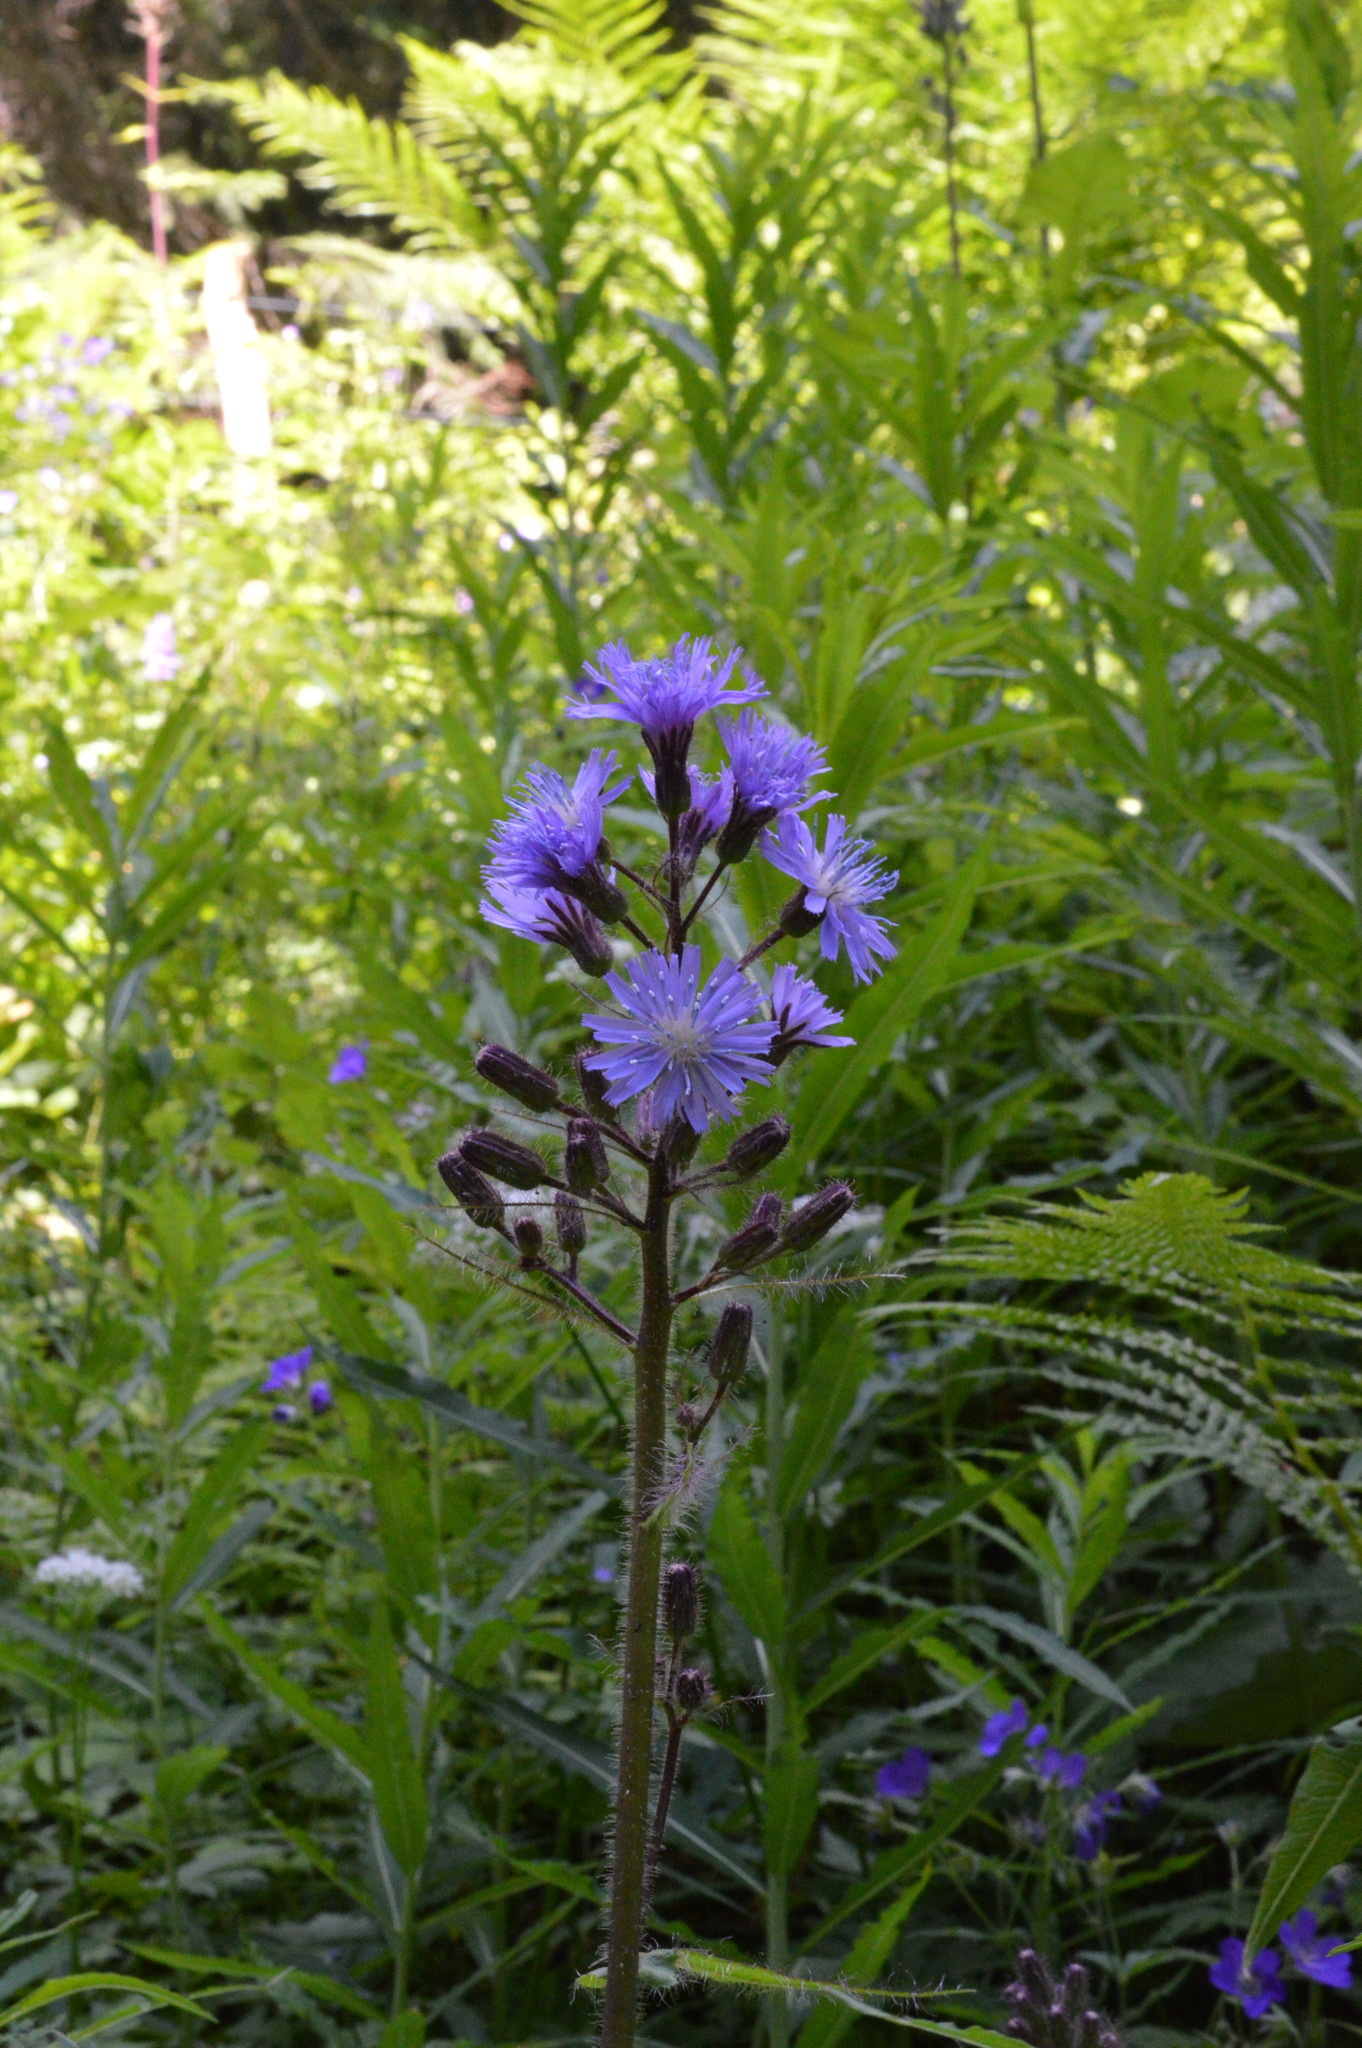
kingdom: Plantae
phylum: Tracheophyta
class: Magnoliopsida
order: Asterales
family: Asteraceae
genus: Cicerbita
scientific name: Cicerbita alpina
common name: Alpine blue-sow-thistle
